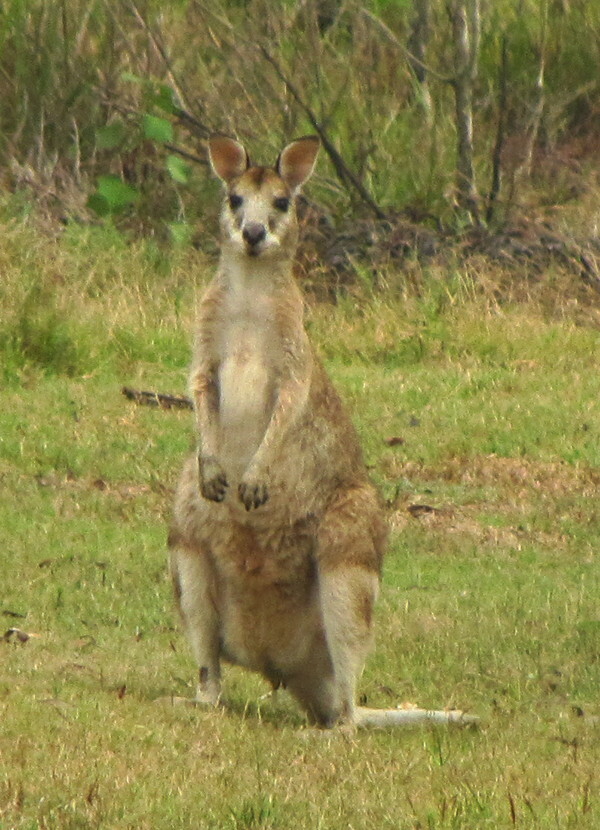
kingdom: Animalia
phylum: Chordata
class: Mammalia
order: Diprotodontia
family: Macropodidae
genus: Macropus
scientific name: Macropus agilis
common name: Agile wallaby
